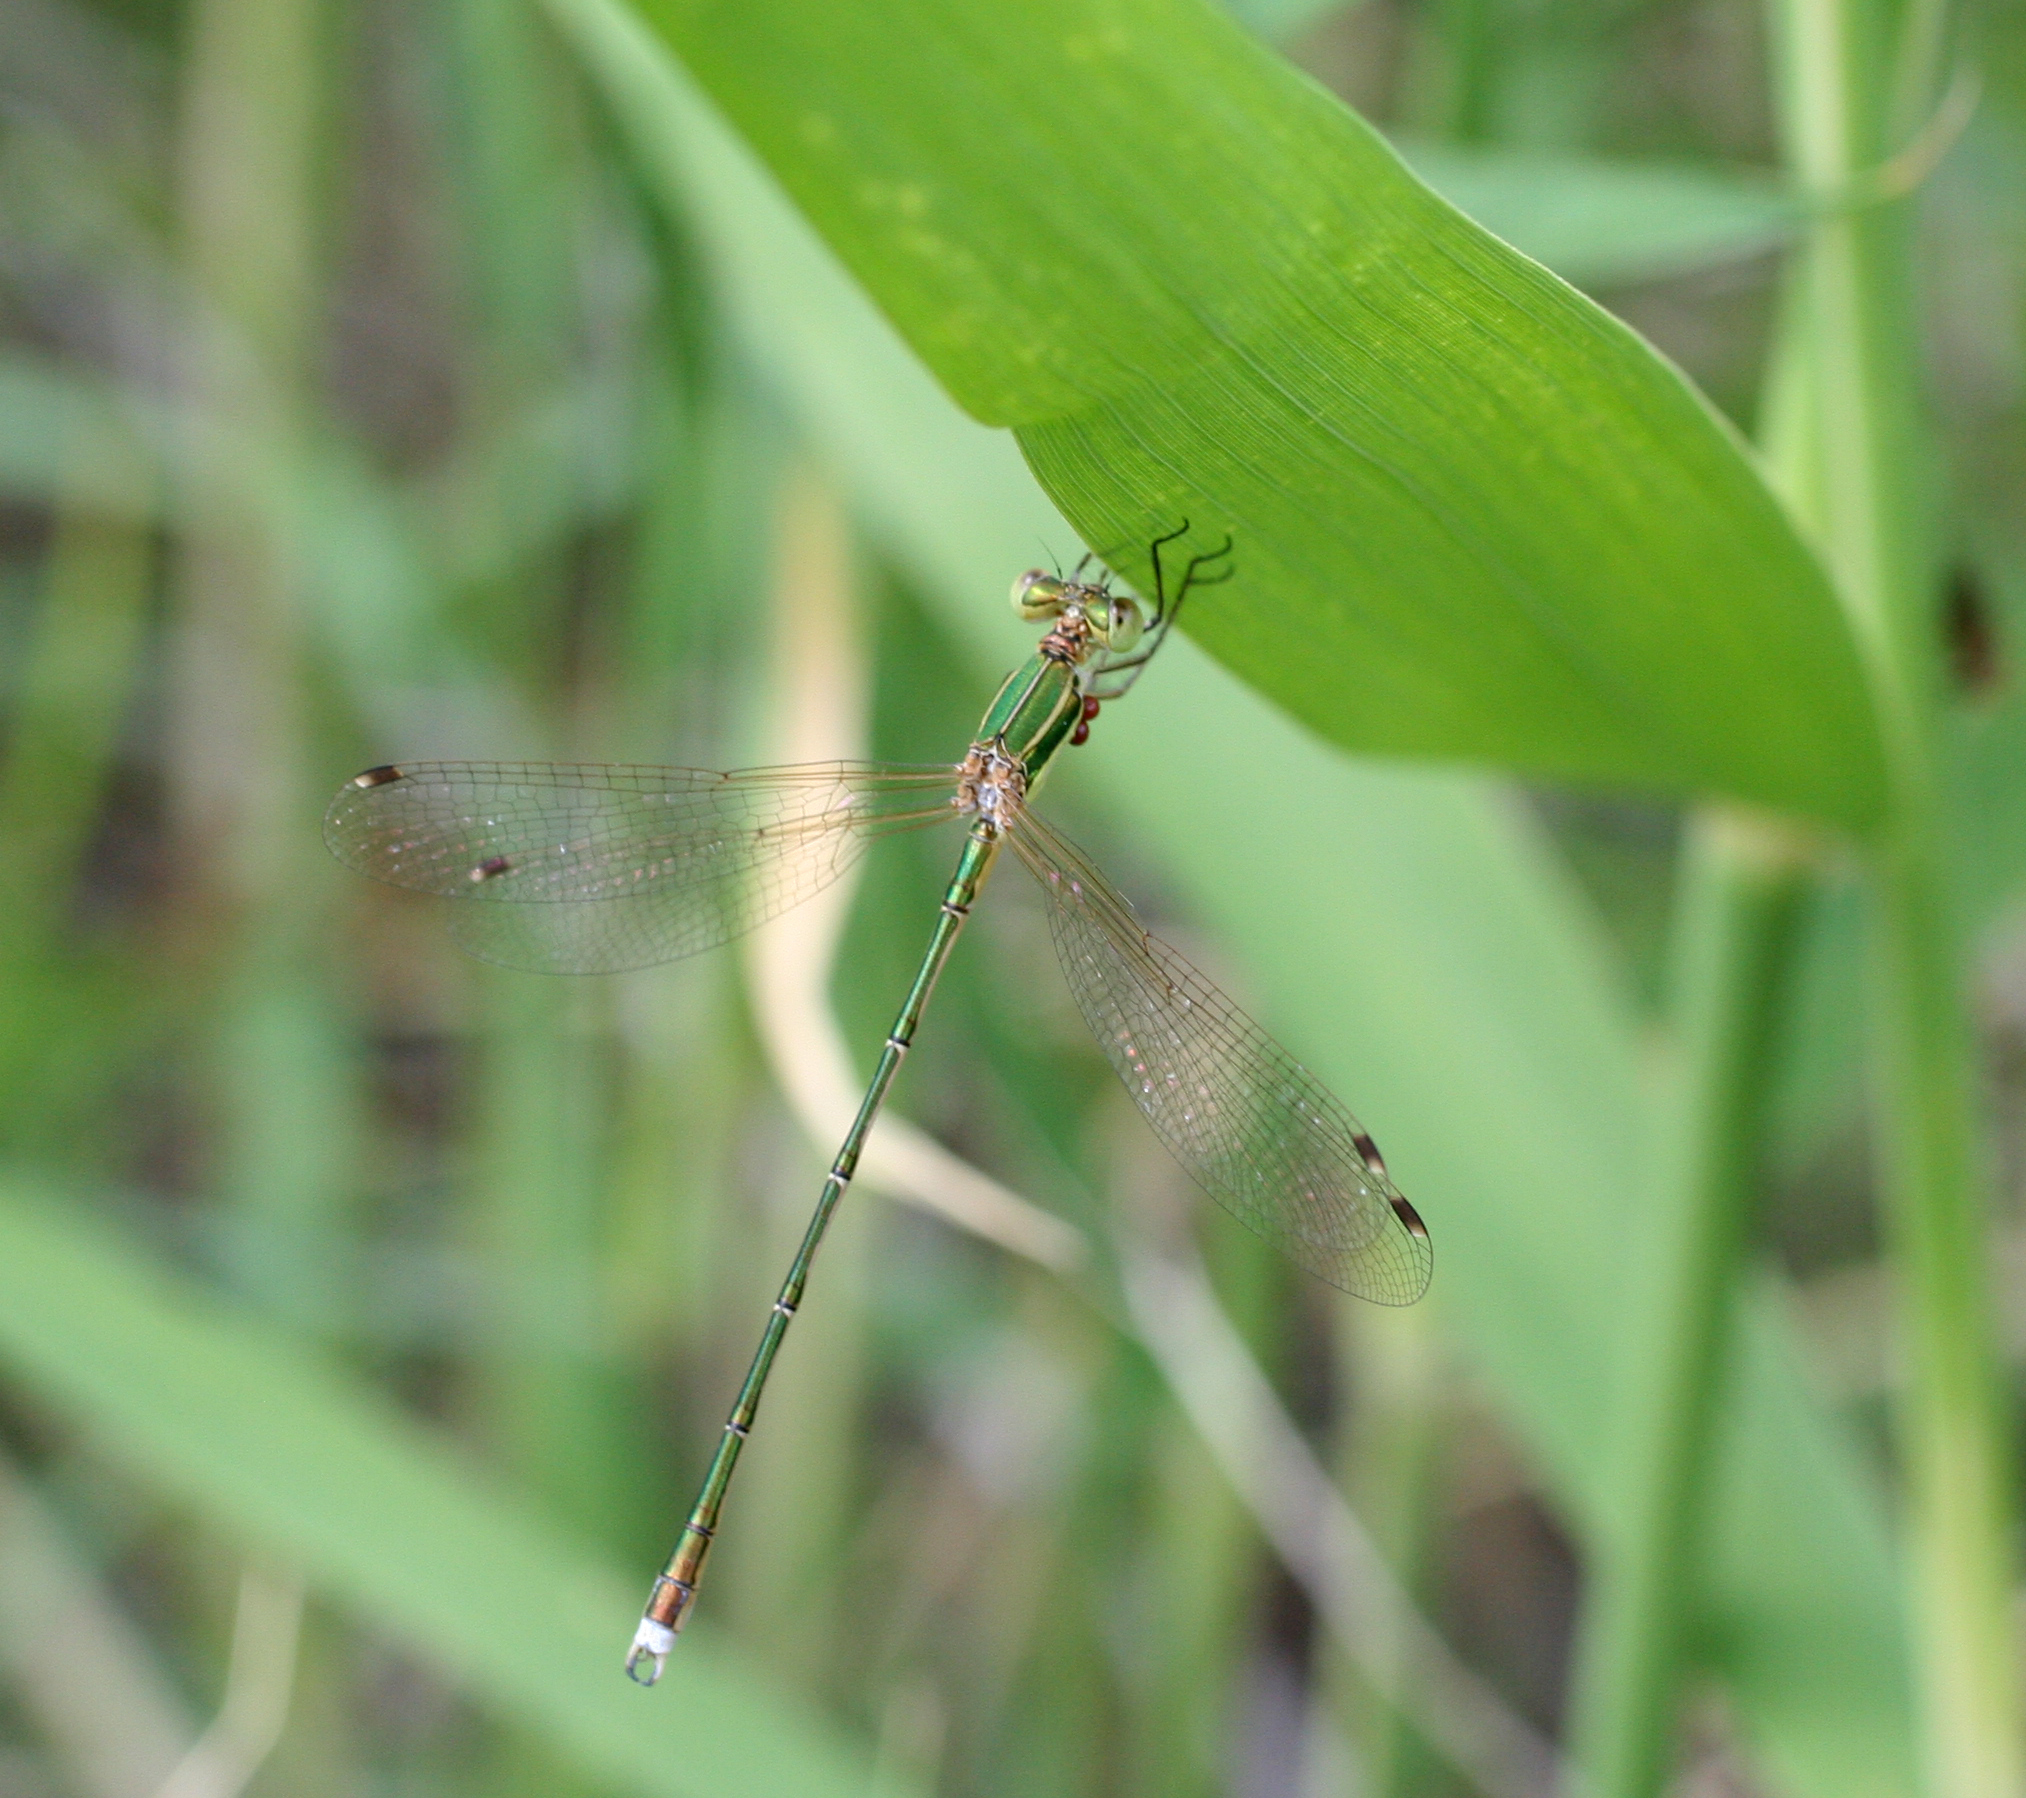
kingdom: Animalia
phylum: Arthropoda
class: Insecta
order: Odonata
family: Lestidae
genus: Lestes
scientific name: Lestes barbarus
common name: Migrant spreadwing
